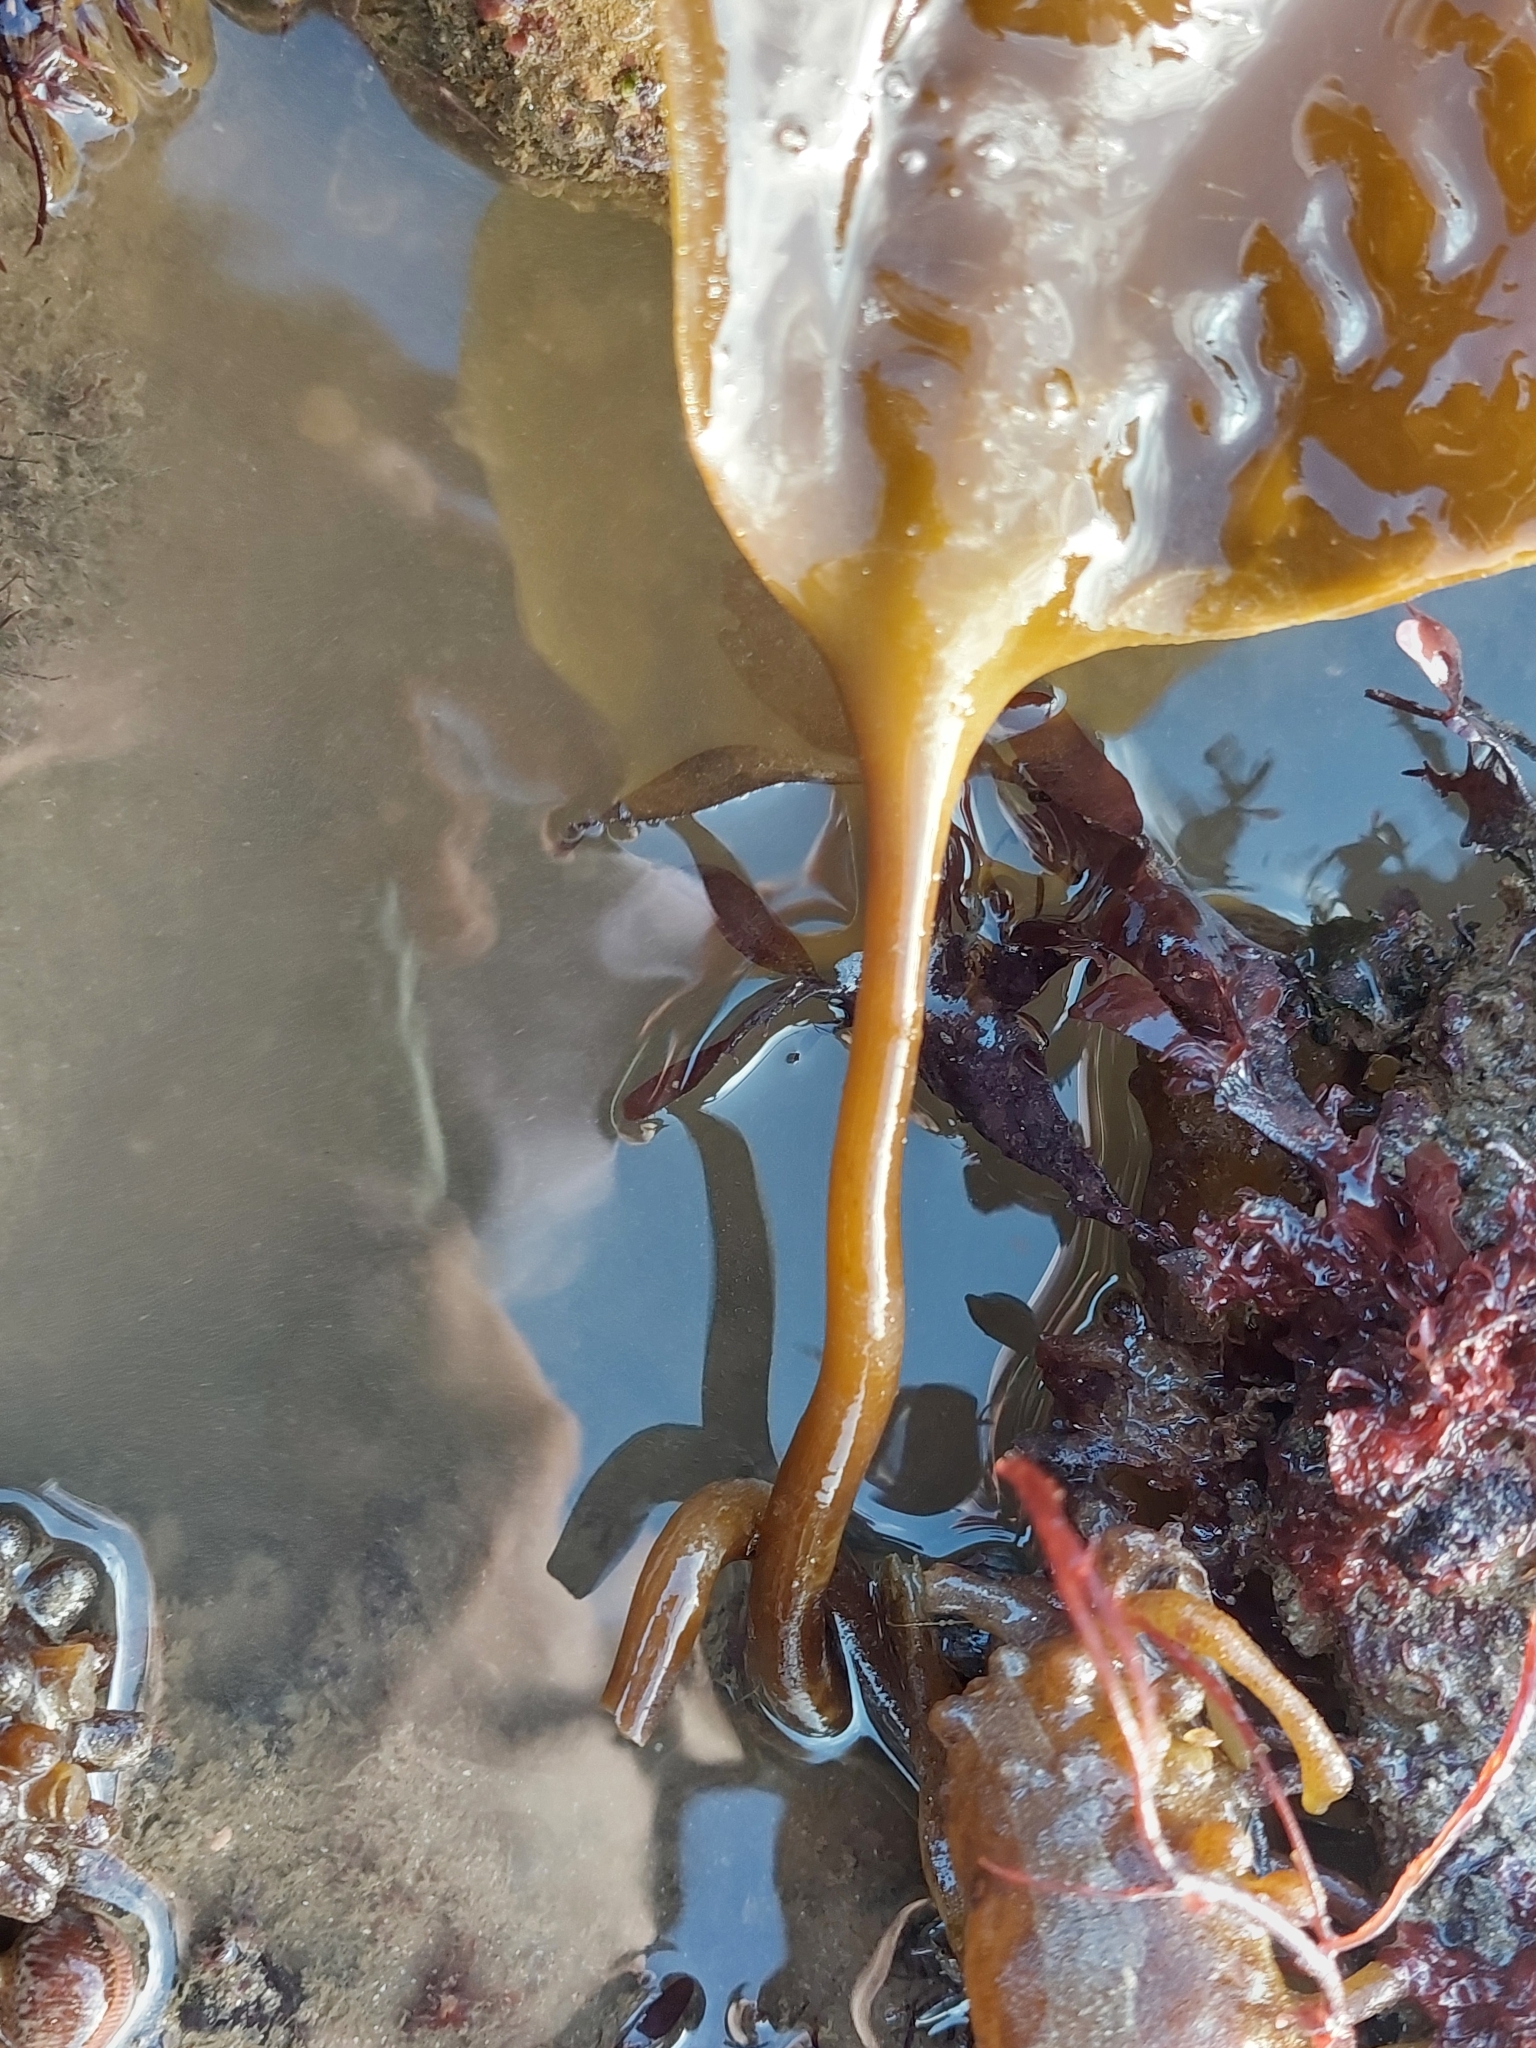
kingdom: Chromista
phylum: Ochrophyta
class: Phaeophyceae
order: Laminariales
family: Laminariaceae
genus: Saccharina
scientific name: Saccharina latissima
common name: Poor man's weather glass
